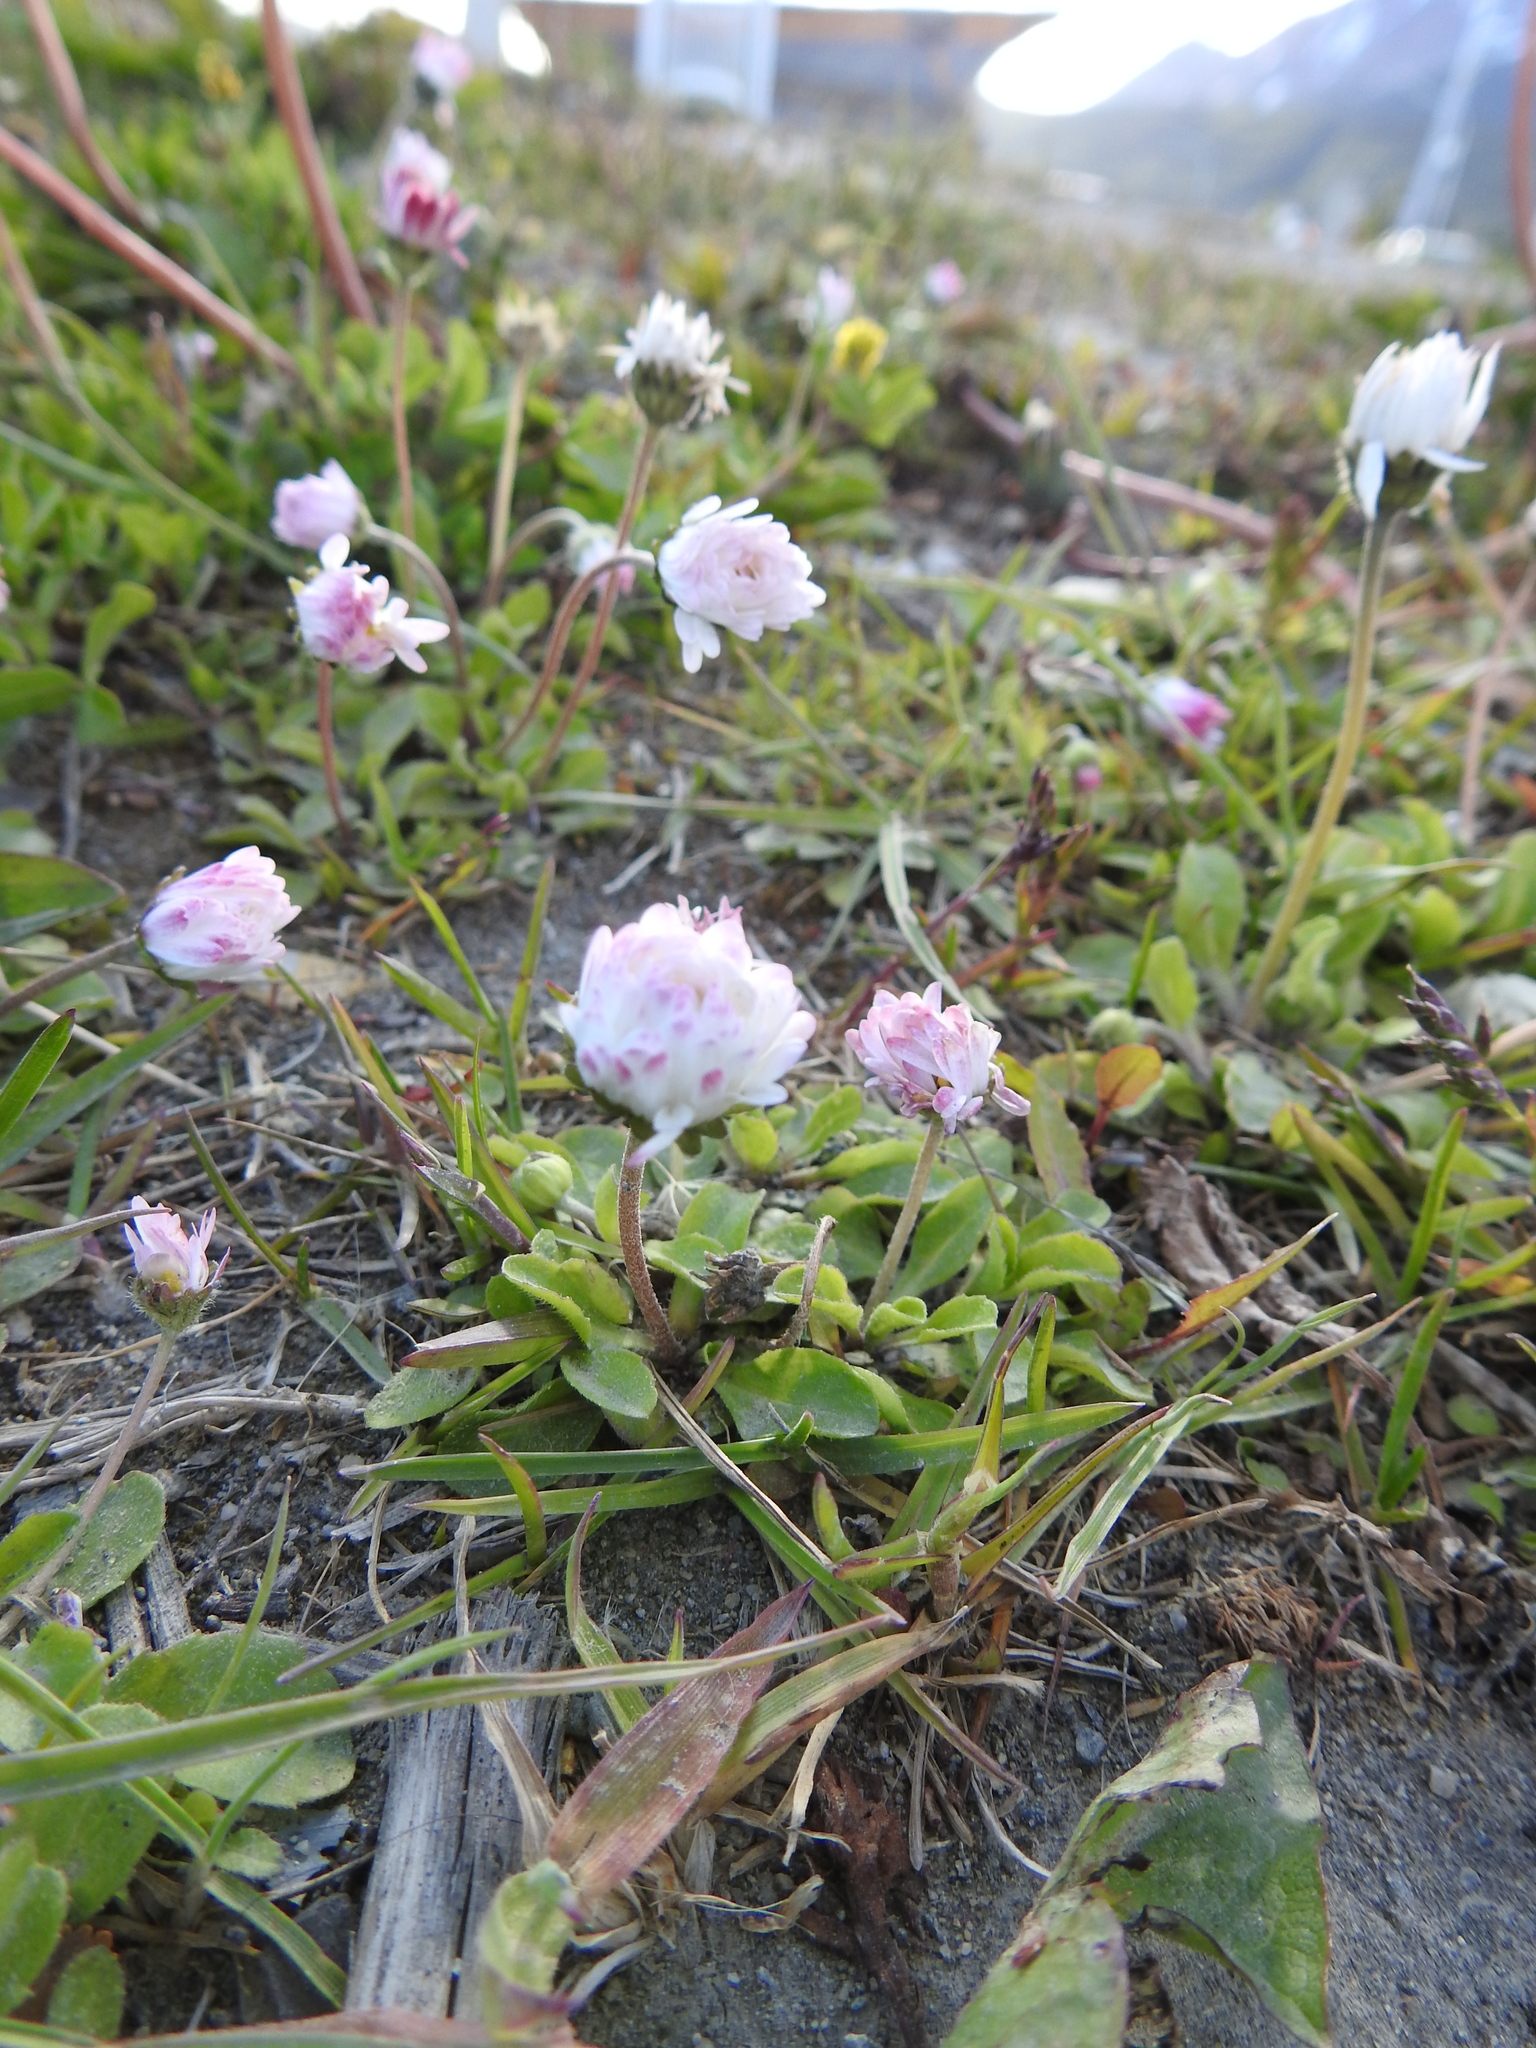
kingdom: Plantae
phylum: Tracheophyta
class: Magnoliopsida
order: Asterales
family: Asteraceae
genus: Bellis
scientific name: Bellis perennis
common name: Lawndaisy
